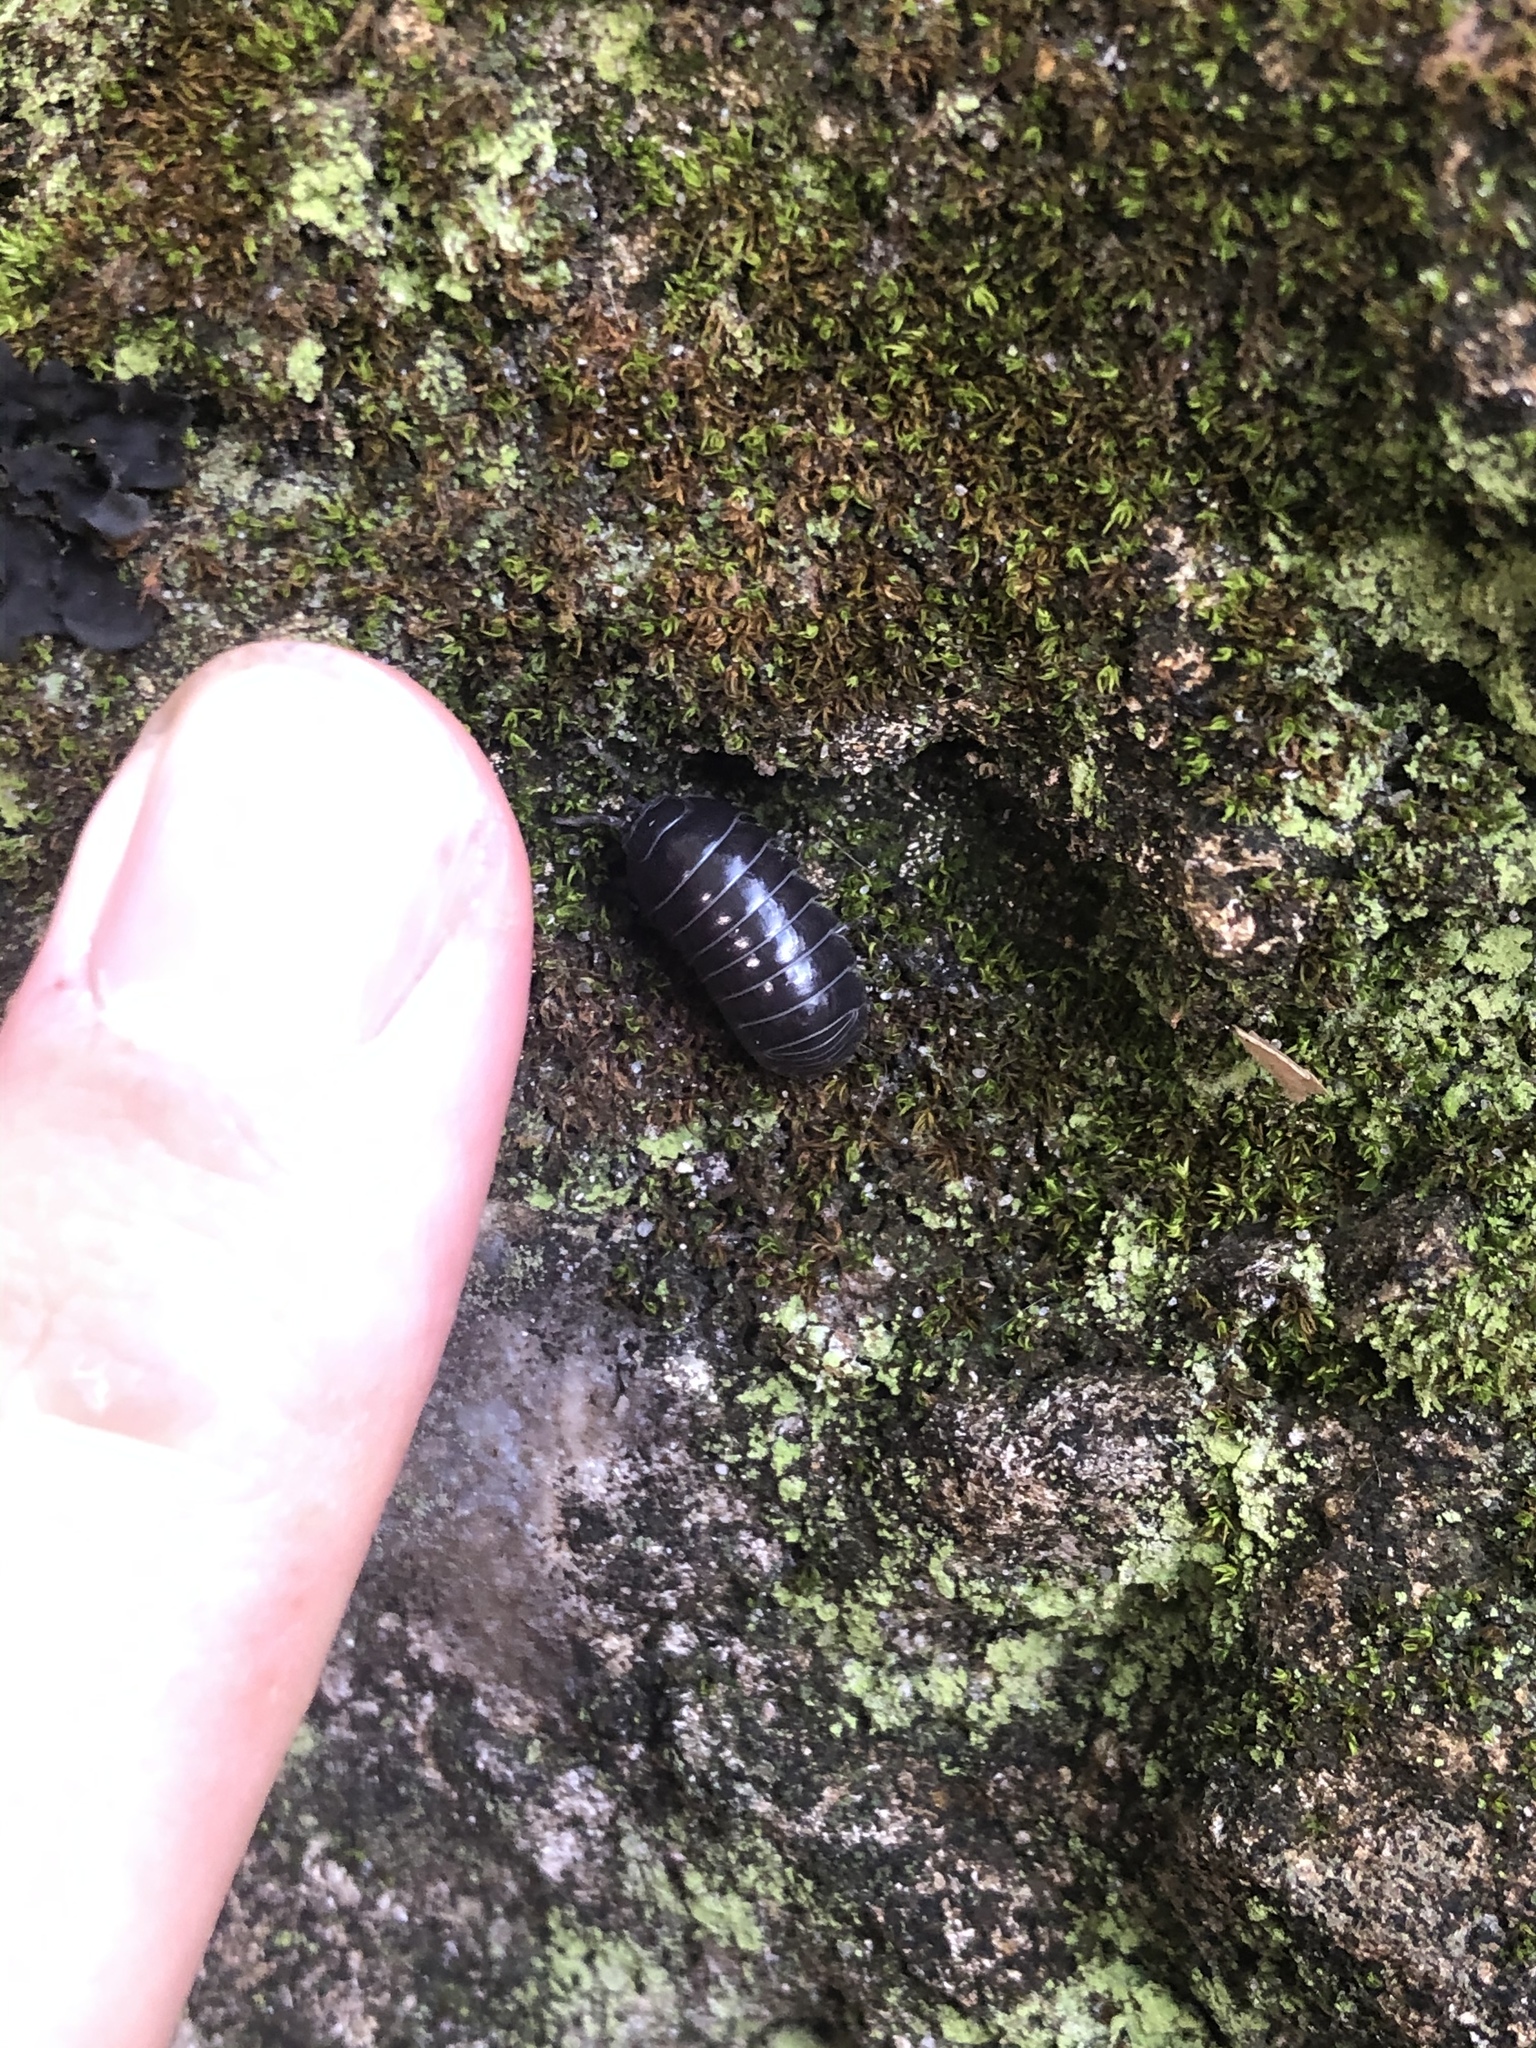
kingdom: Animalia
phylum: Arthropoda
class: Malacostraca
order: Isopoda
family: Armadillidiidae
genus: Armadillidium
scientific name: Armadillidium vulgare
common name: Common pill woodlouse
